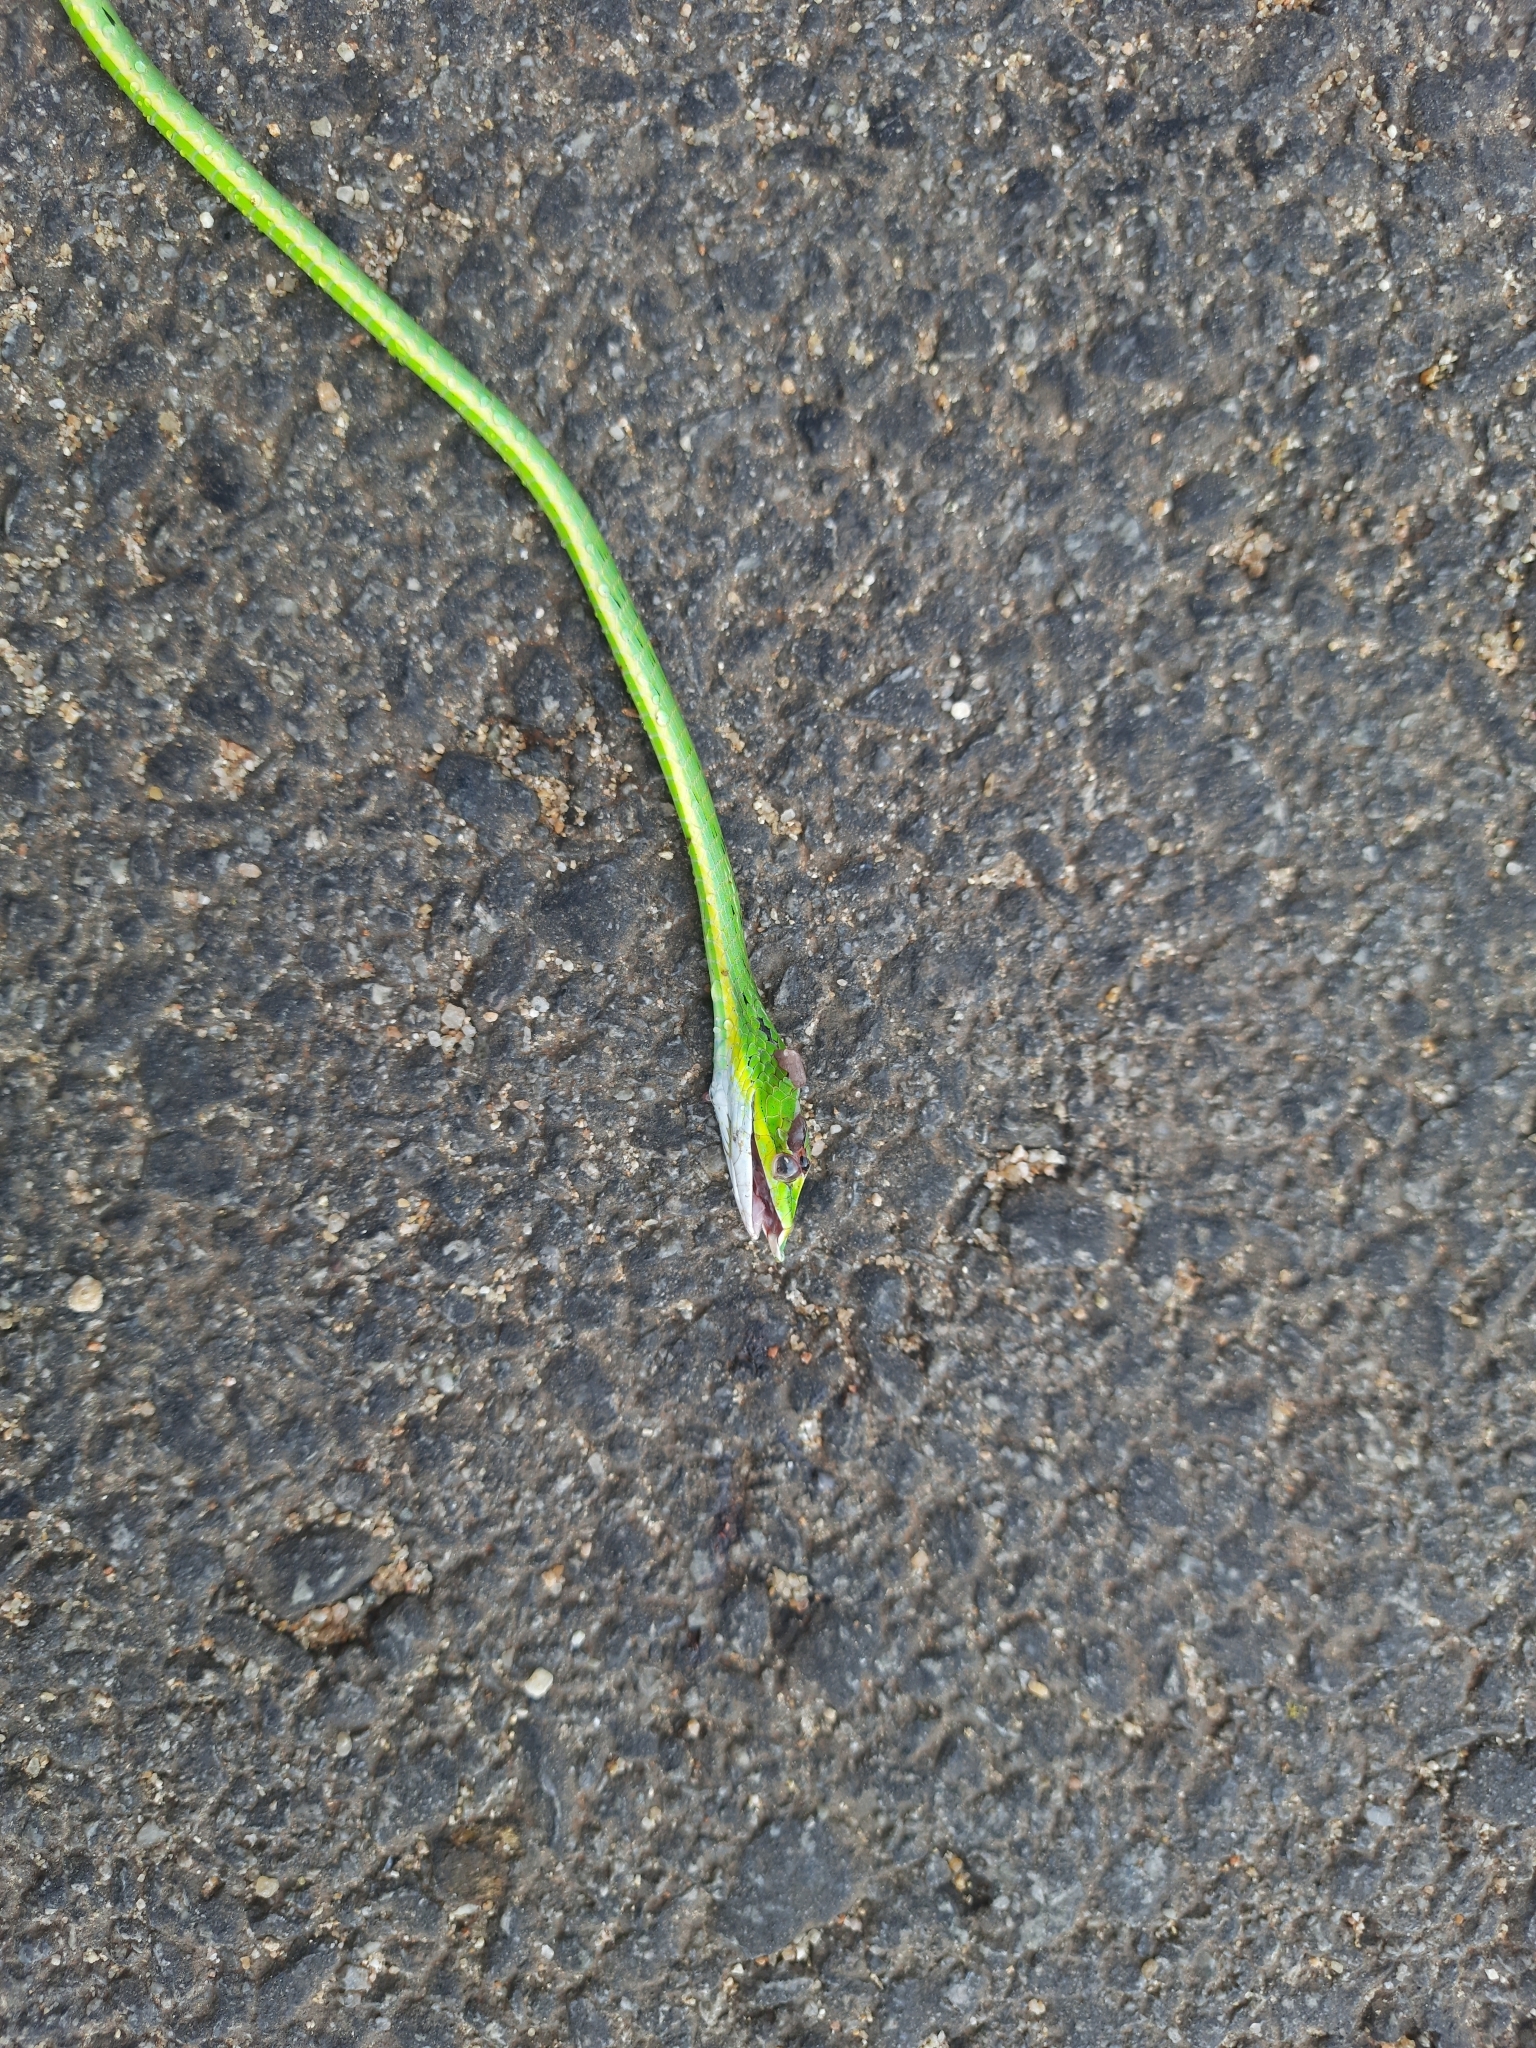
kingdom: Animalia
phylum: Chordata
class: Squamata
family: Colubridae
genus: Ahaetulla
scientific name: Ahaetulla oxyrhyncha
